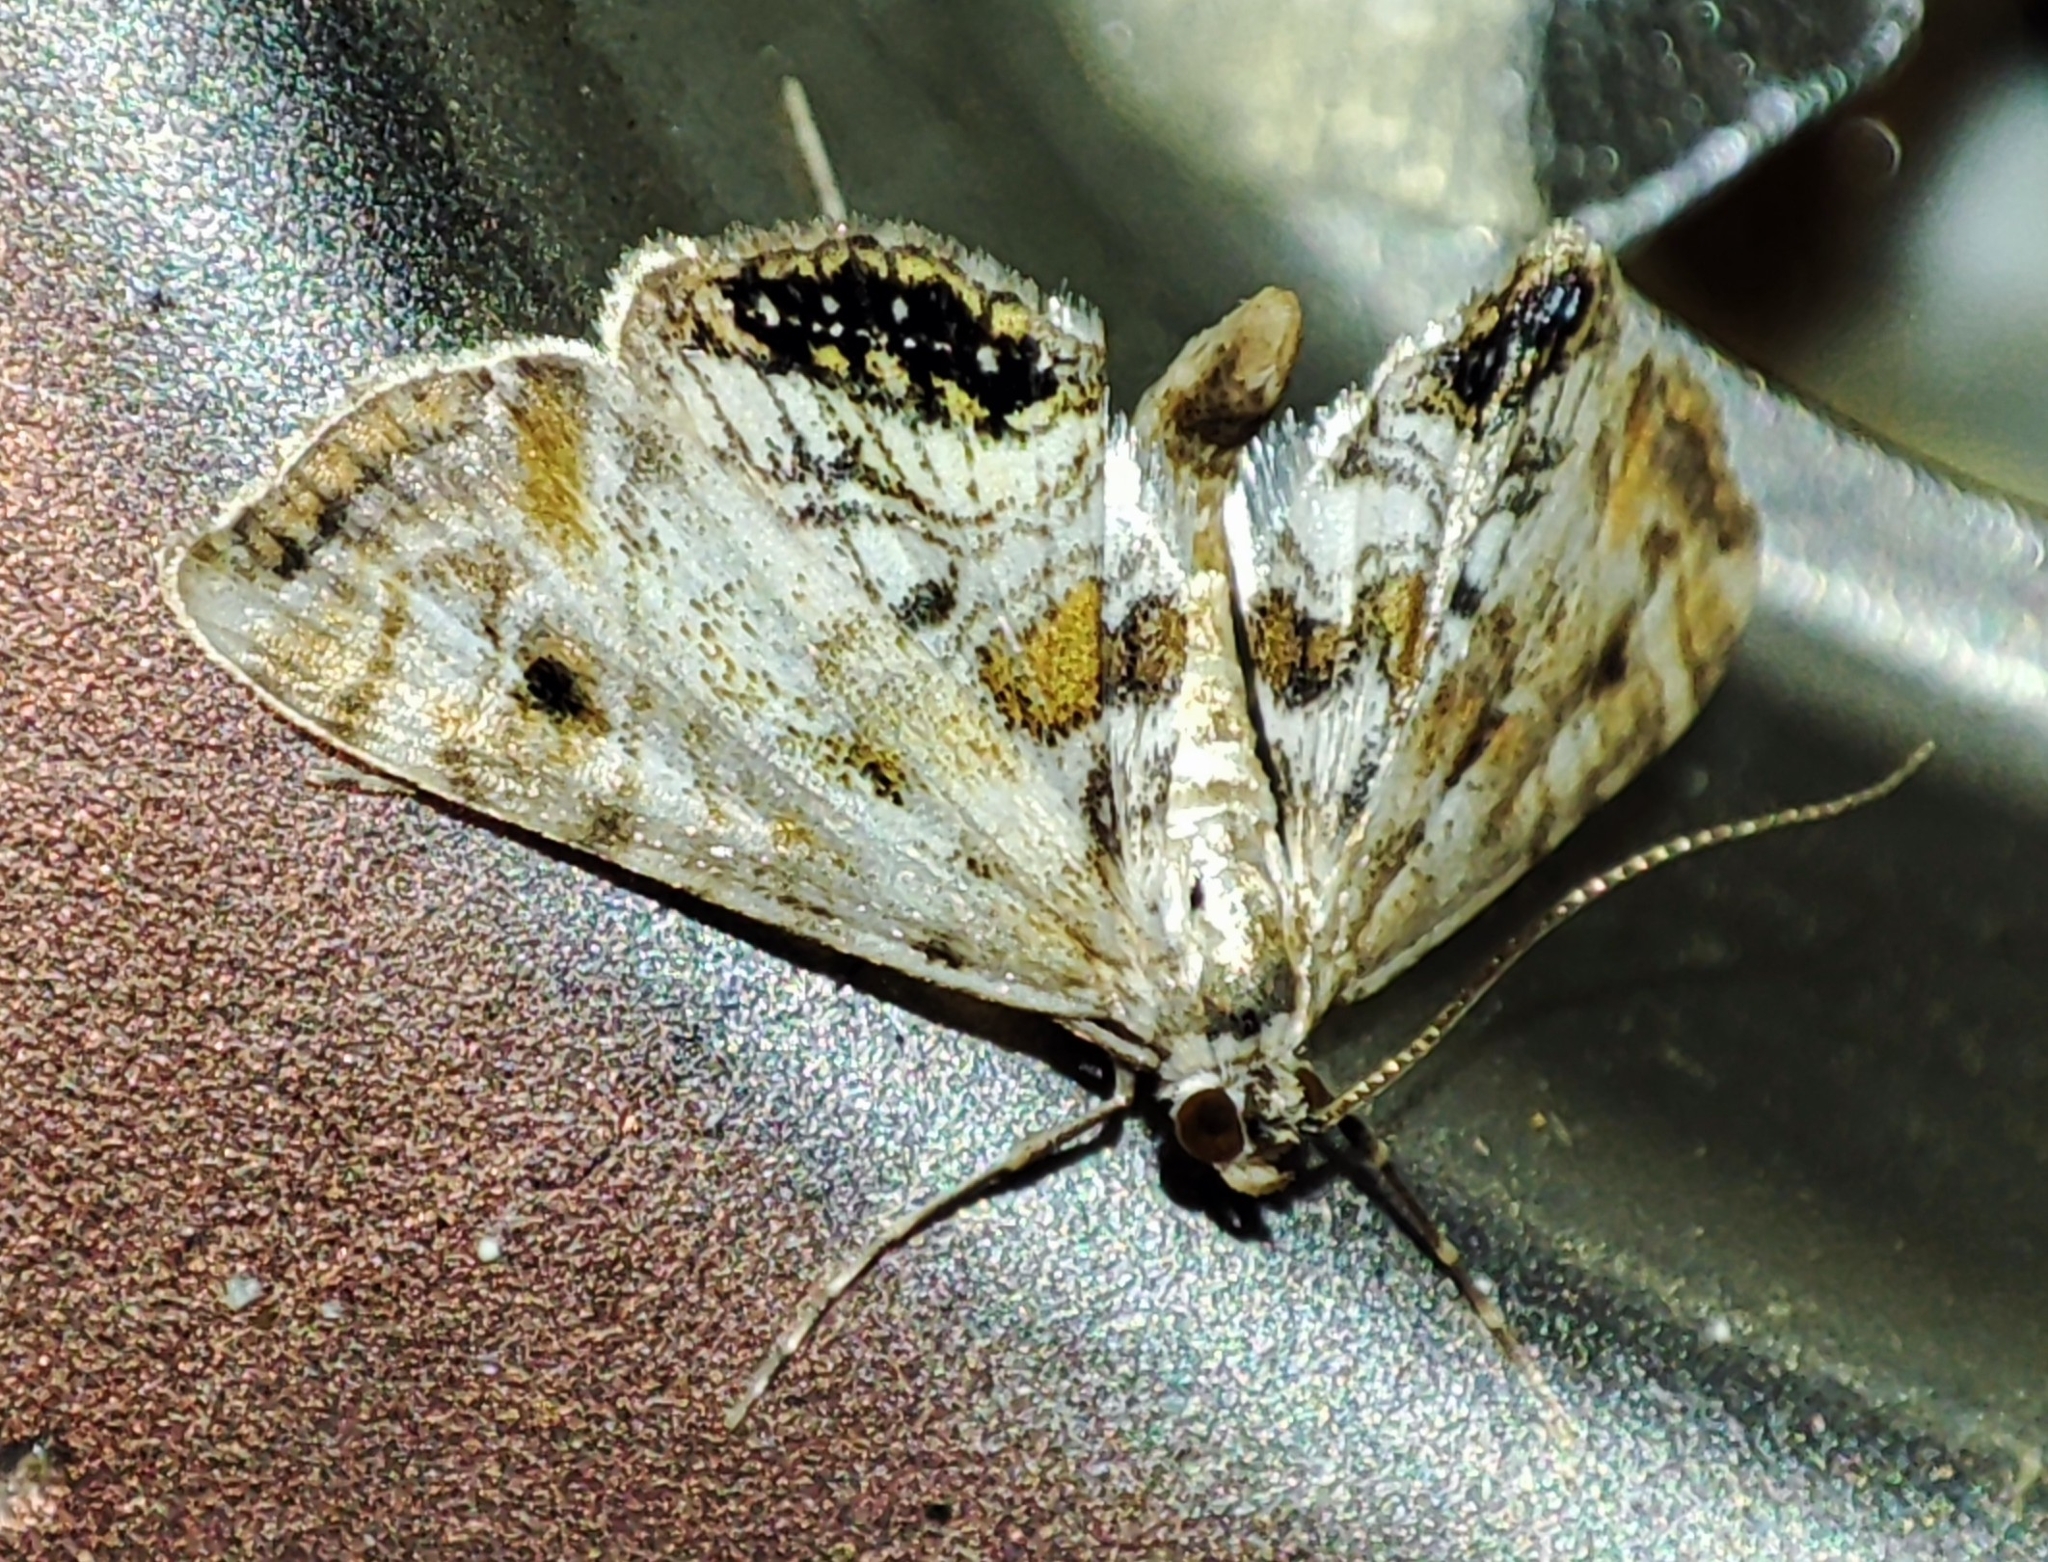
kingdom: Animalia
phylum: Arthropoda
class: Insecta
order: Lepidoptera
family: Crambidae
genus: Cataclysta
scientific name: Cataclysta lemnata
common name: Small china-mark
